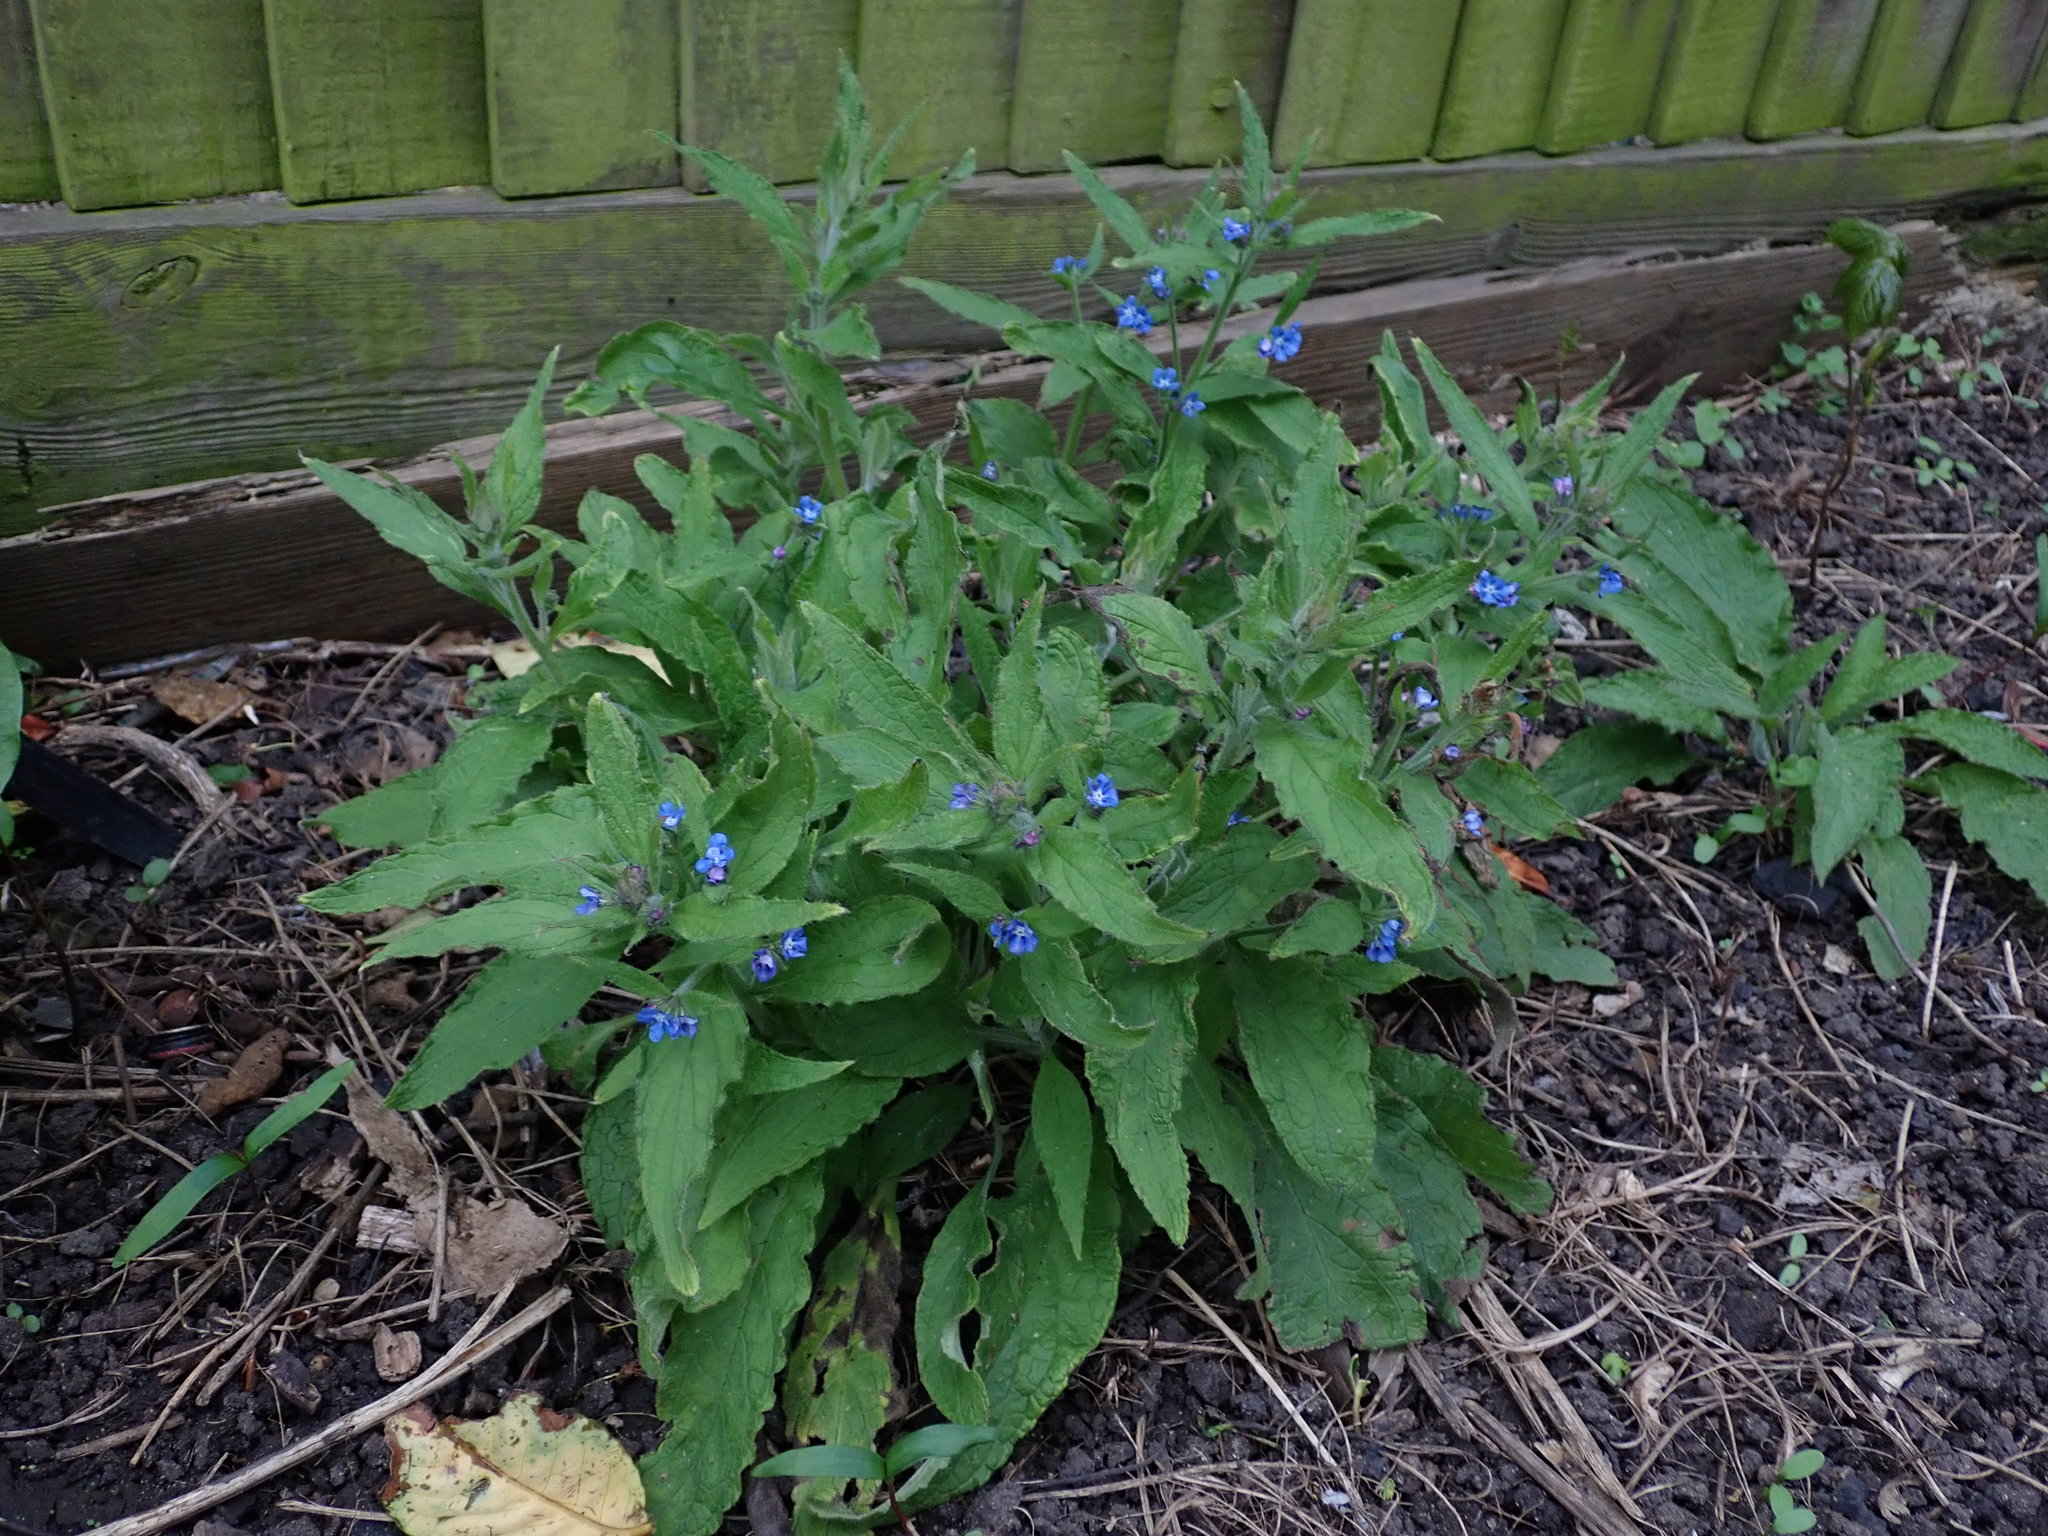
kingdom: Plantae
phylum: Tracheophyta
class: Magnoliopsida
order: Boraginales
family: Boraginaceae
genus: Pentaglottis
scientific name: Pentaglottis sempervirens
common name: Green alkanet
